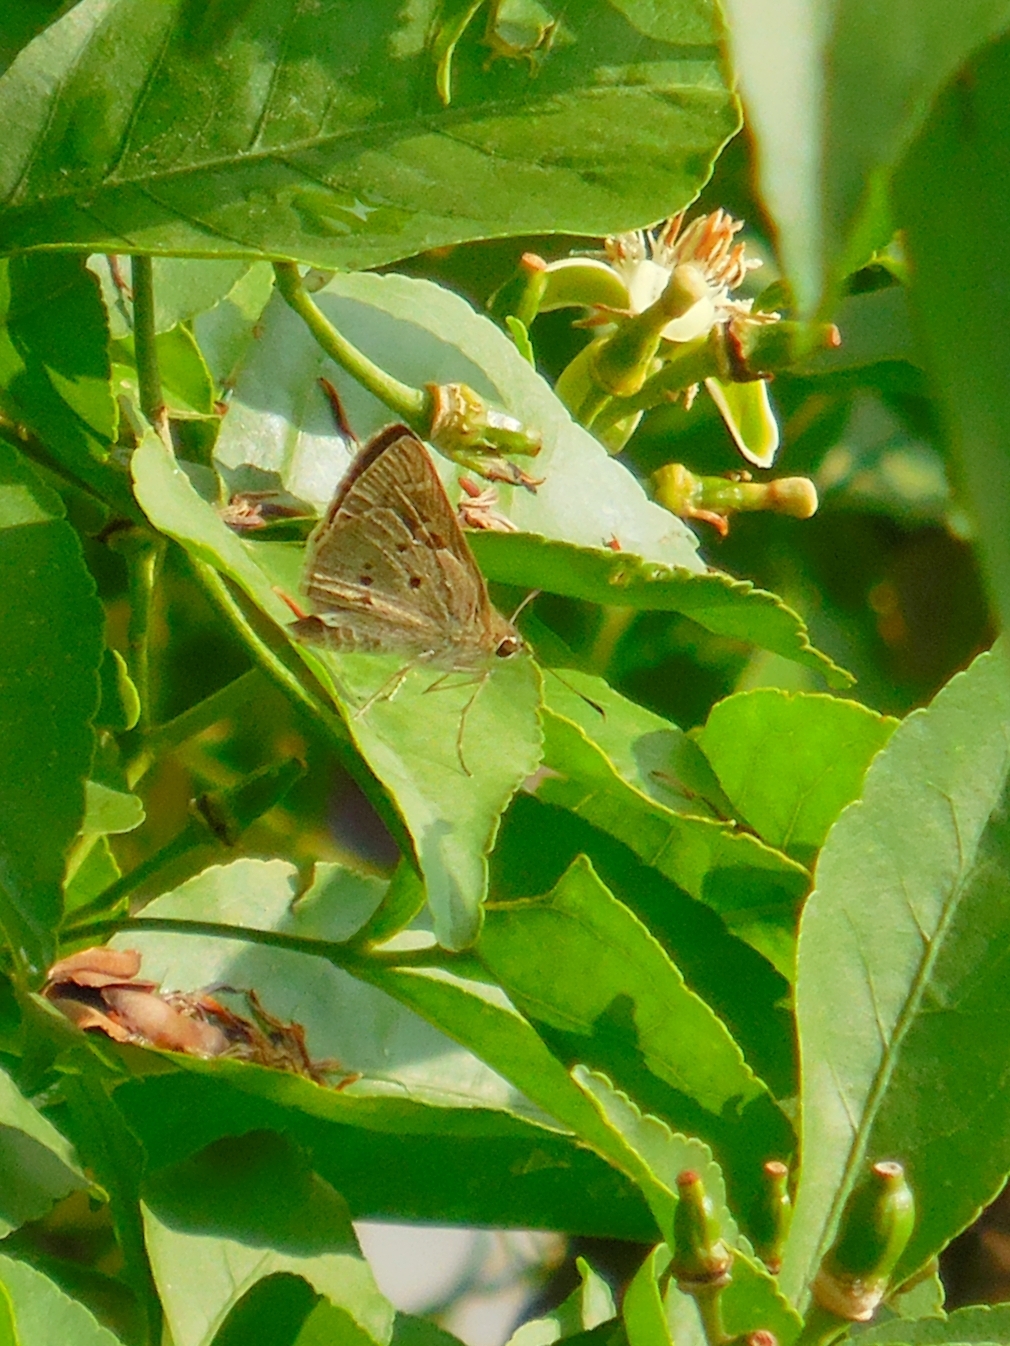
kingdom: Animalia
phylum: Arthropoda
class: Insecta
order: Lepidoptera
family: Hesperiidae
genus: Suastus
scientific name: Suastus gremius
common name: Indian palm bob
